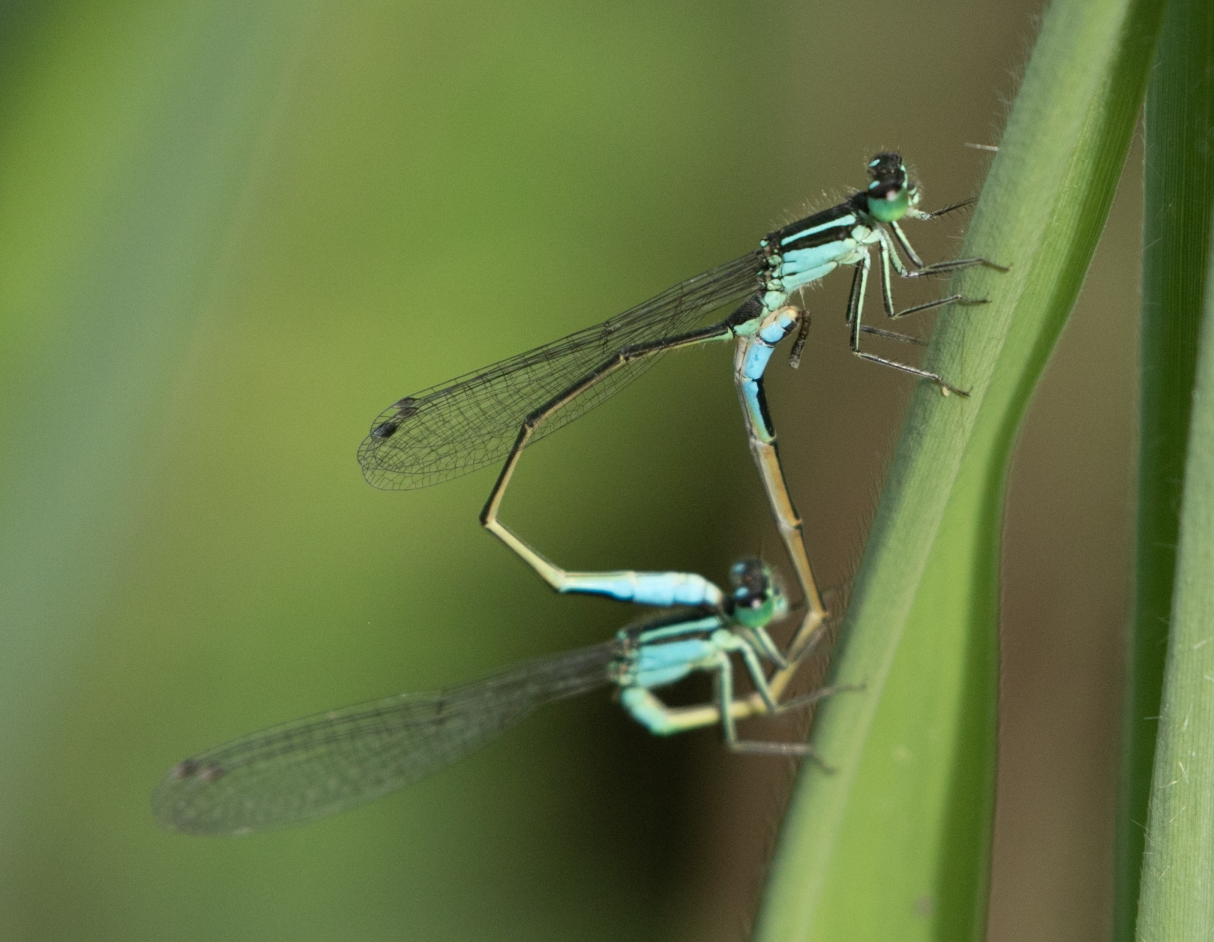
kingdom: Animalia
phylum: Arthropoda
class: Insecta
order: Odonata
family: Coenagrionidae
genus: Ischnura
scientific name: Ischnura elegans
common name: Blue-tailed damselfly
